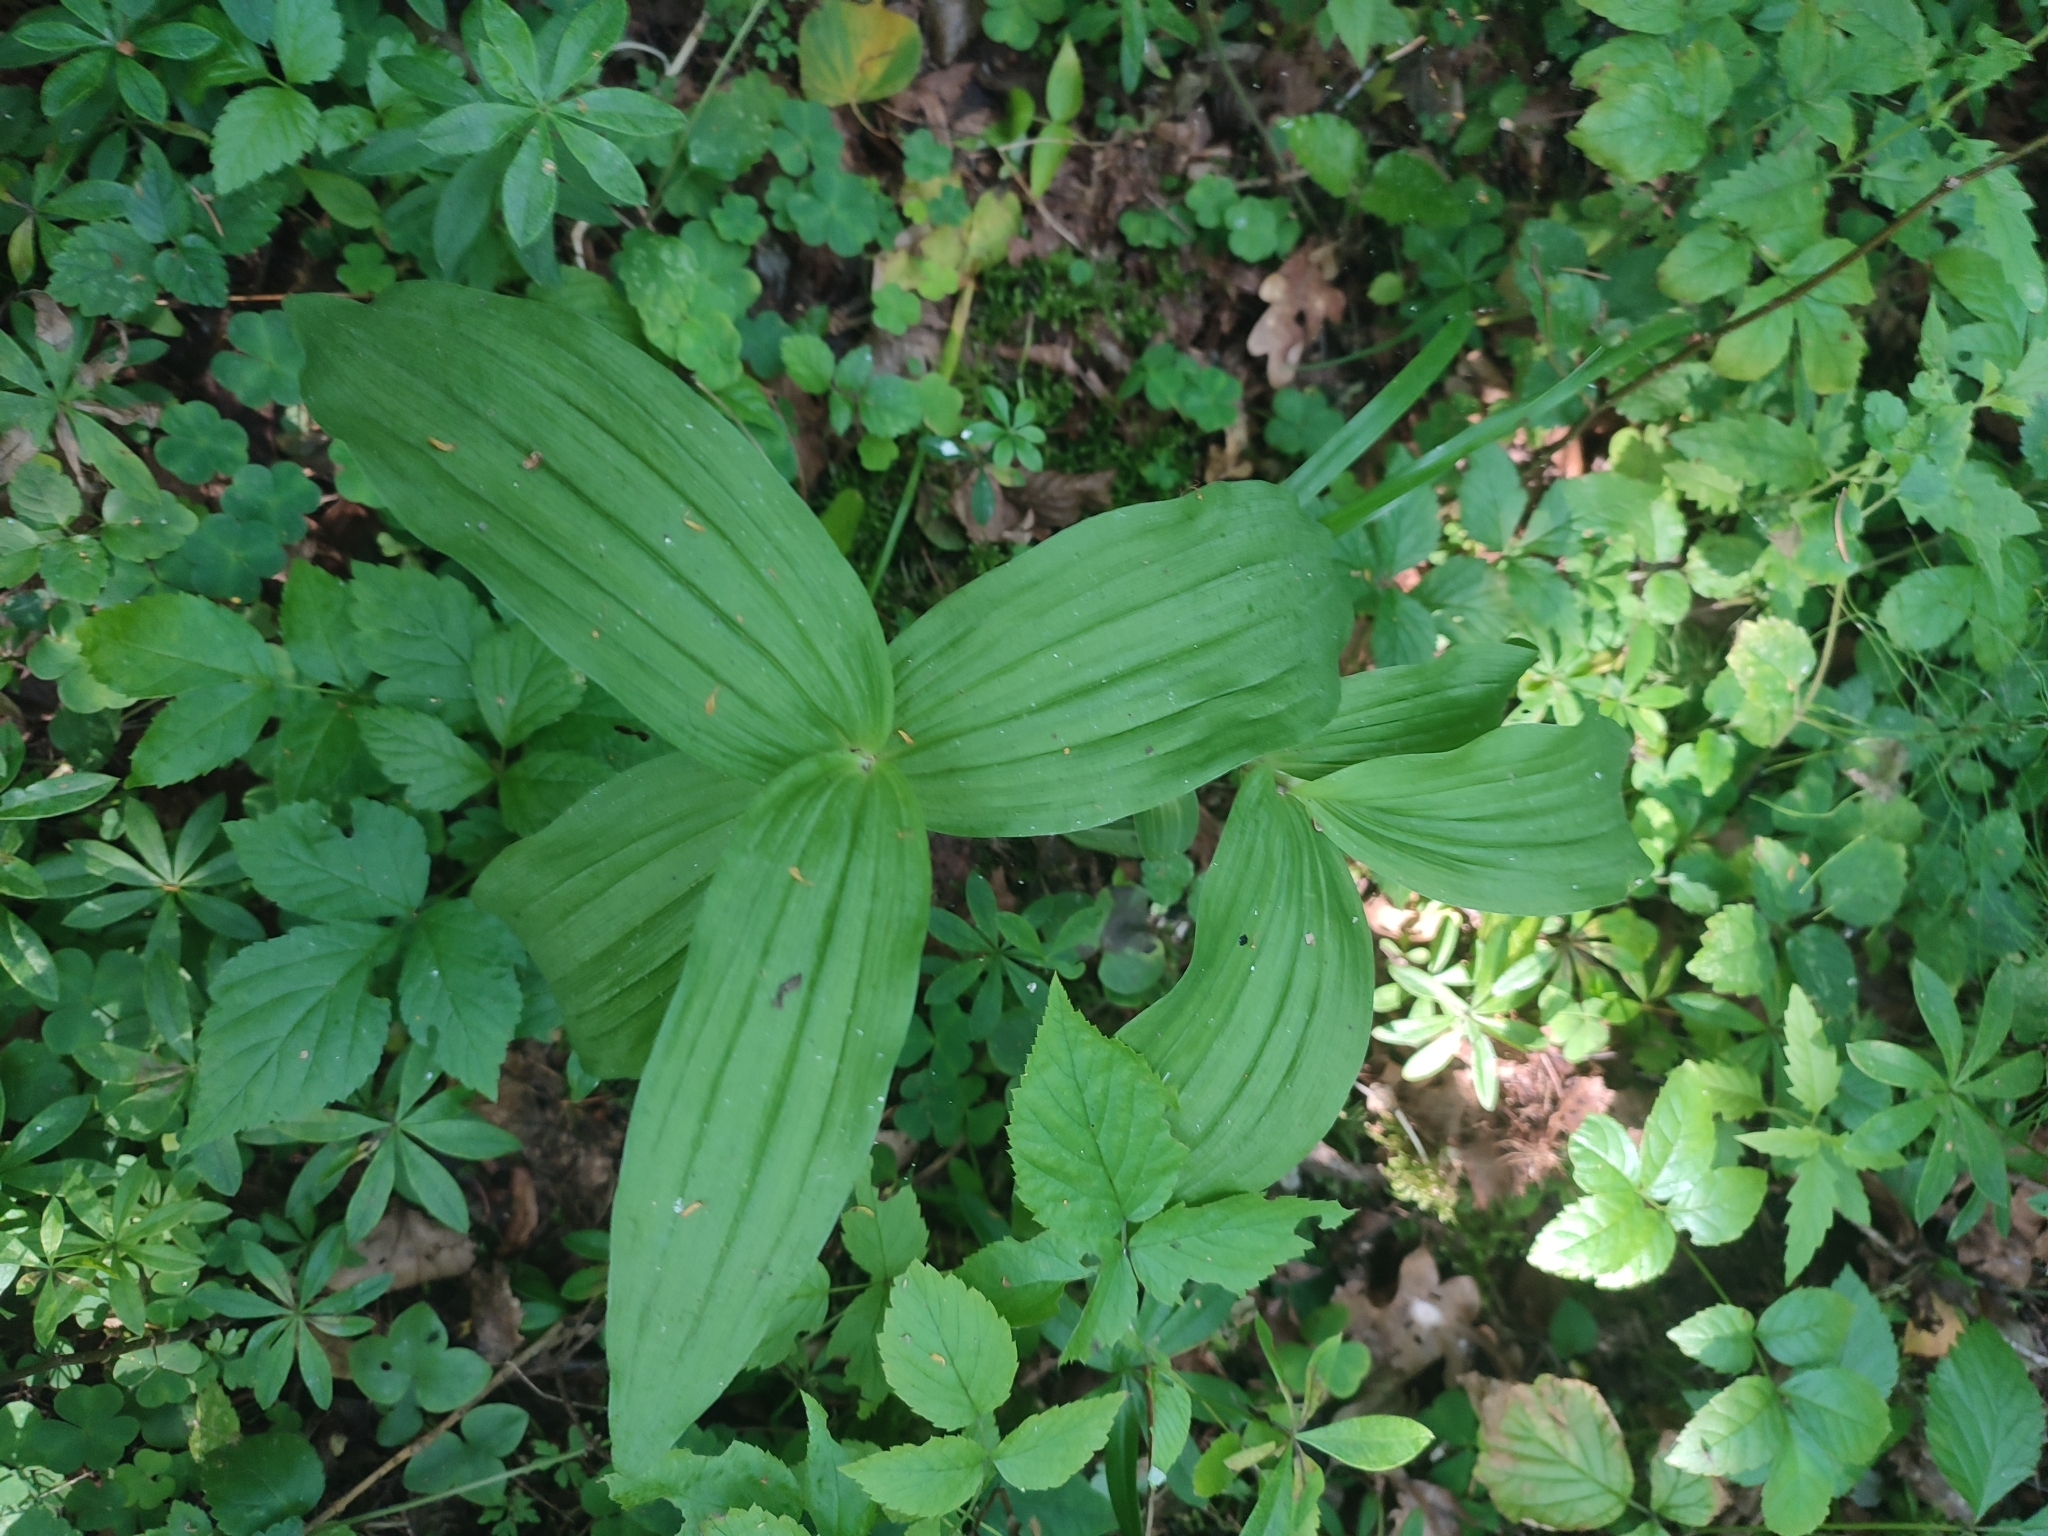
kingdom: Plantae
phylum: Tracheophyta
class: Liliopsida
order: Asparagales
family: Orchidaceae
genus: Epipactis
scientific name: Epipactis helleborine
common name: Broad-leaved helleborine
